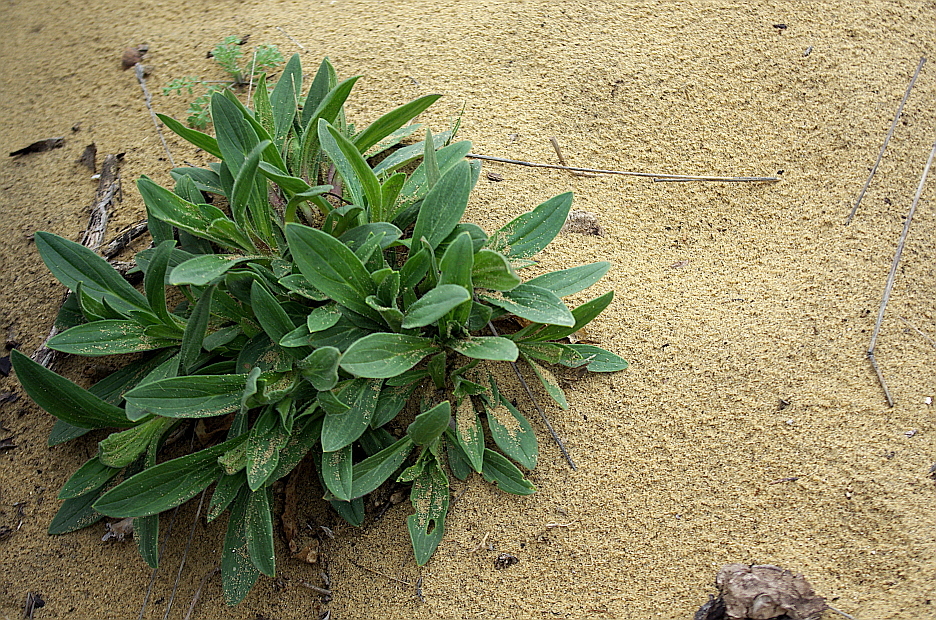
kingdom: Plantae
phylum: Tracheophyta
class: Magnoliopsida
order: Caryophyllales
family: Caryophyllaceae
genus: Silene
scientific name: Silene latifolia
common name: White campion
